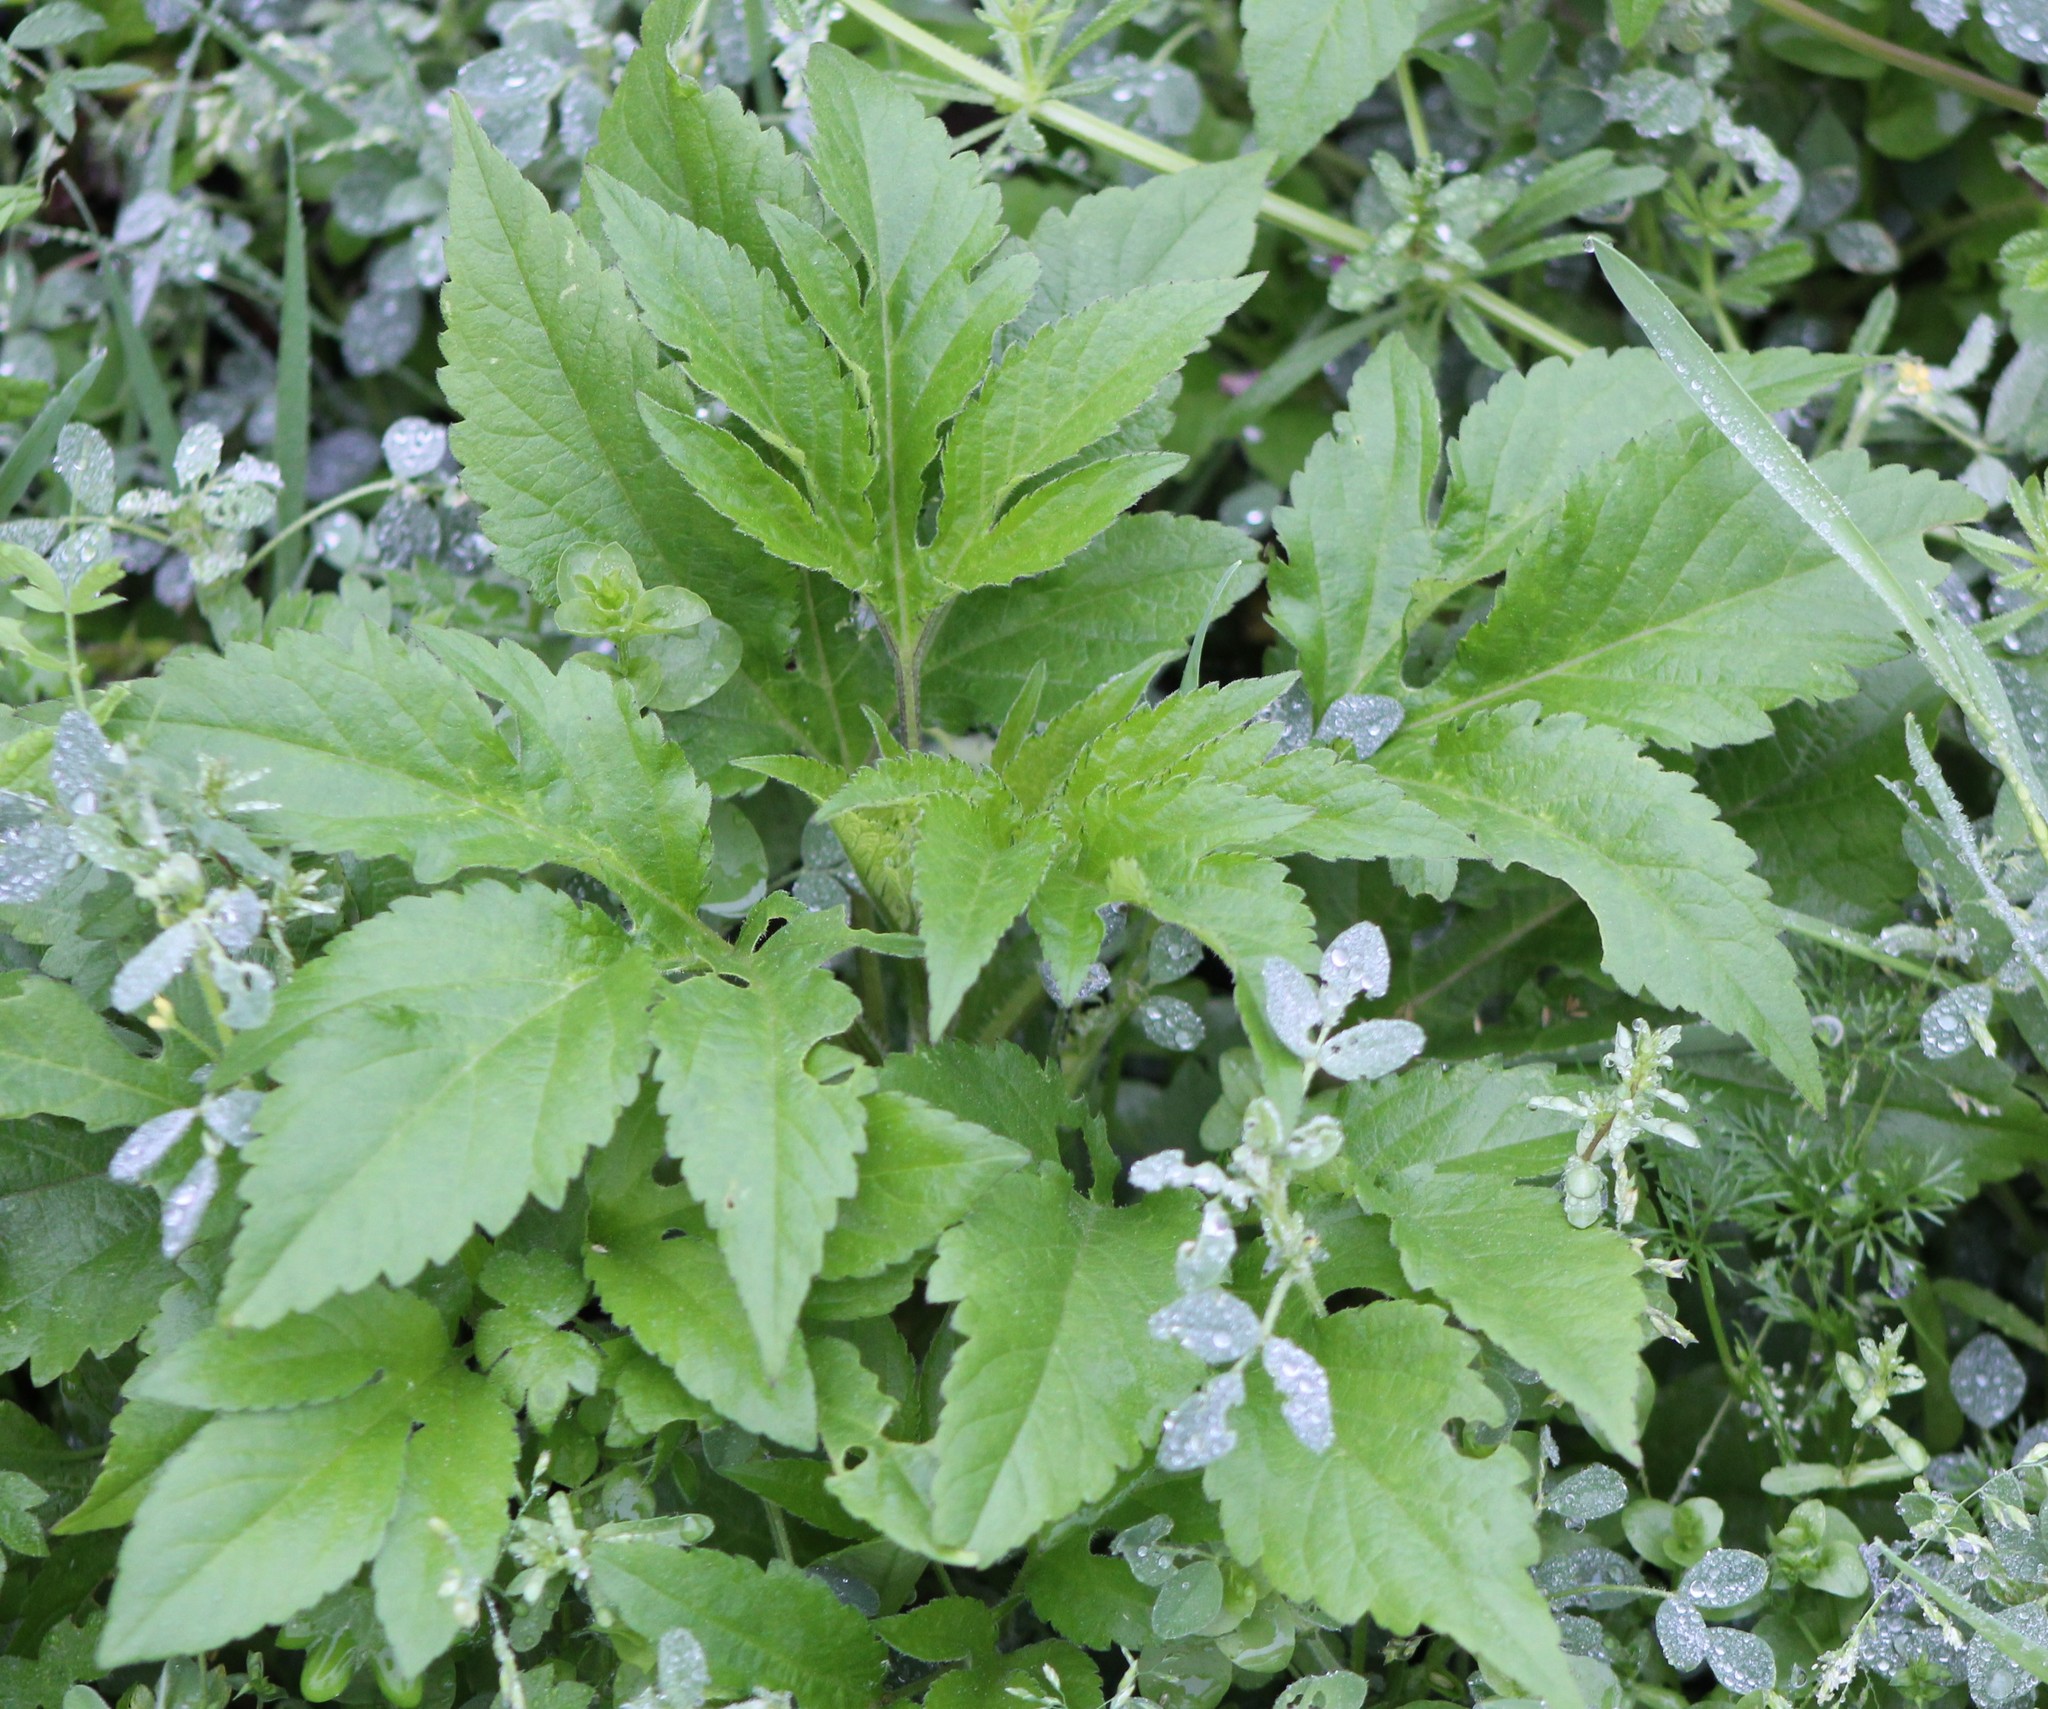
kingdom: Plantae
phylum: Tracheophyta
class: Magnoliopsida
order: Asterales
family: Asteraceae
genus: Ambrosia
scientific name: Ambrosia trifida
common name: Giant ragweed
